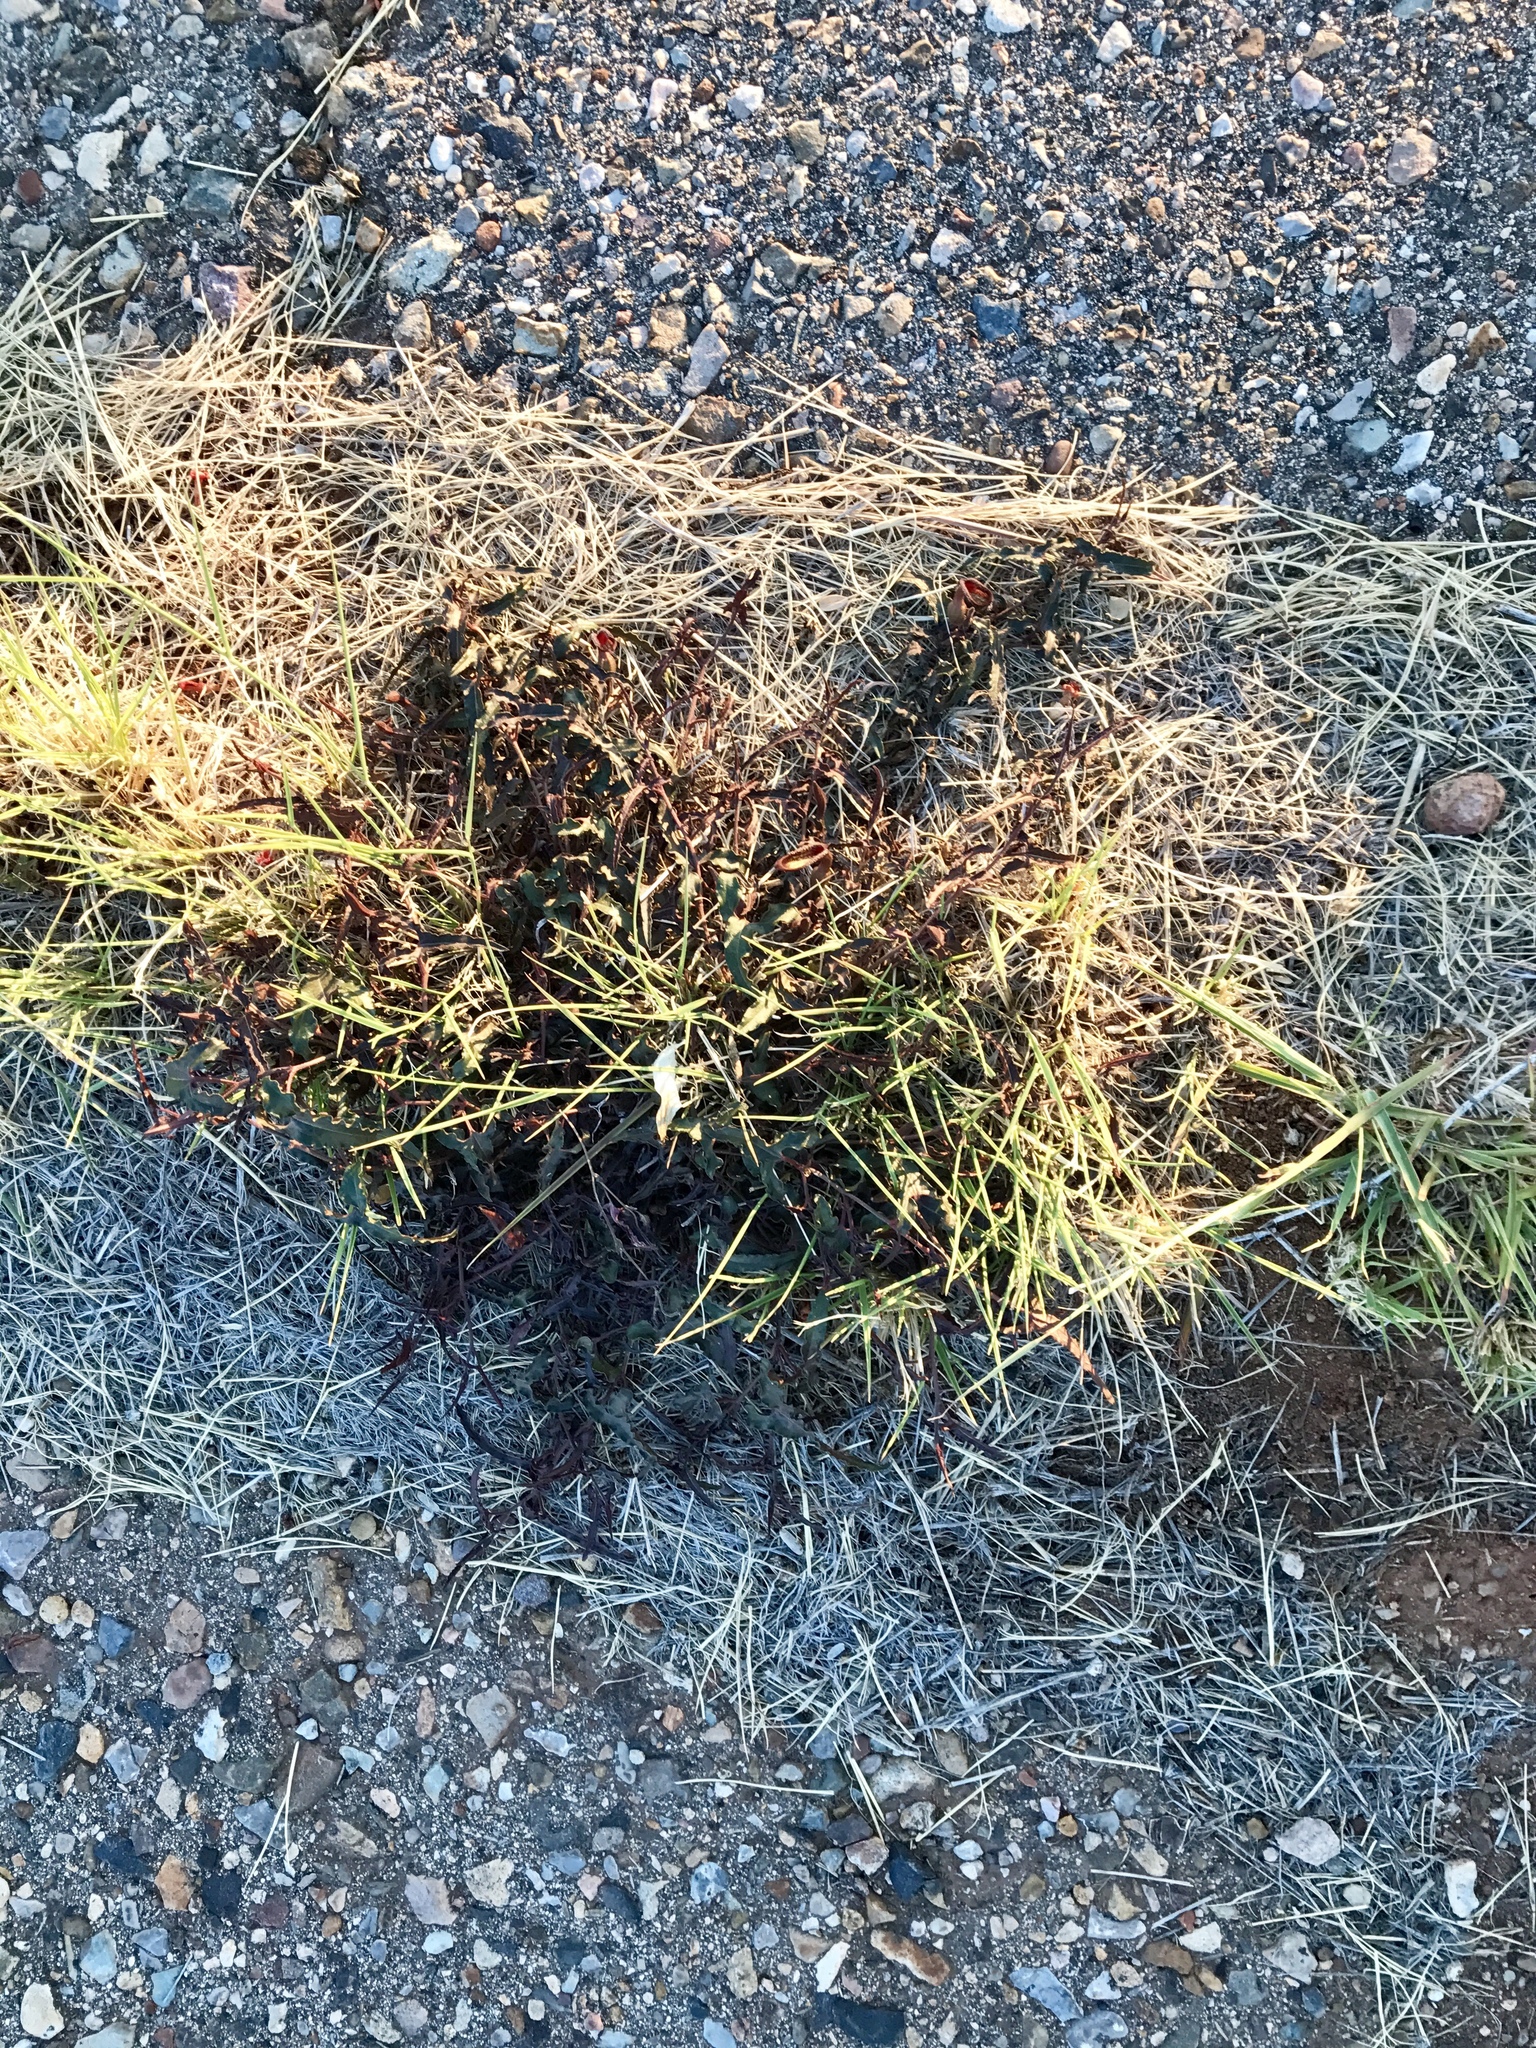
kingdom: Plantae
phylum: Tracheophyta
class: Magnoliopsida
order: Piperales
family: Aristolochiaceae
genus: Aristolochia
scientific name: Aristolochia watsonii
